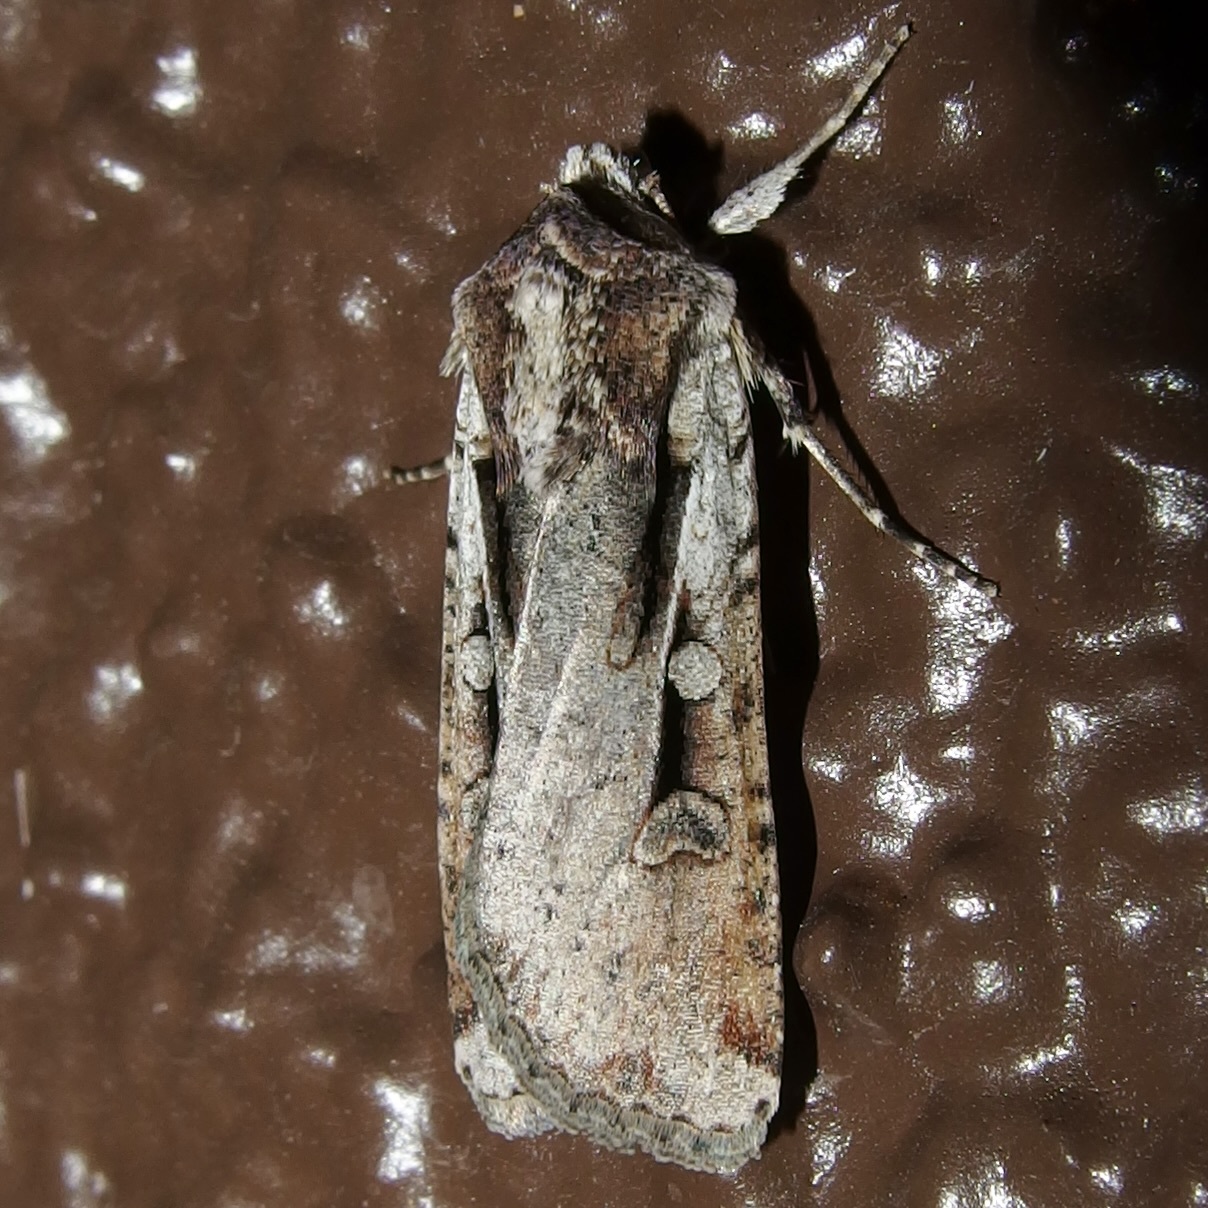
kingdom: Animalia
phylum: Arthropoda
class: Insecta
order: Lepidoptera
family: Noctuidae
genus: Hemieuxoa
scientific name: Hemieuxoa rudens
